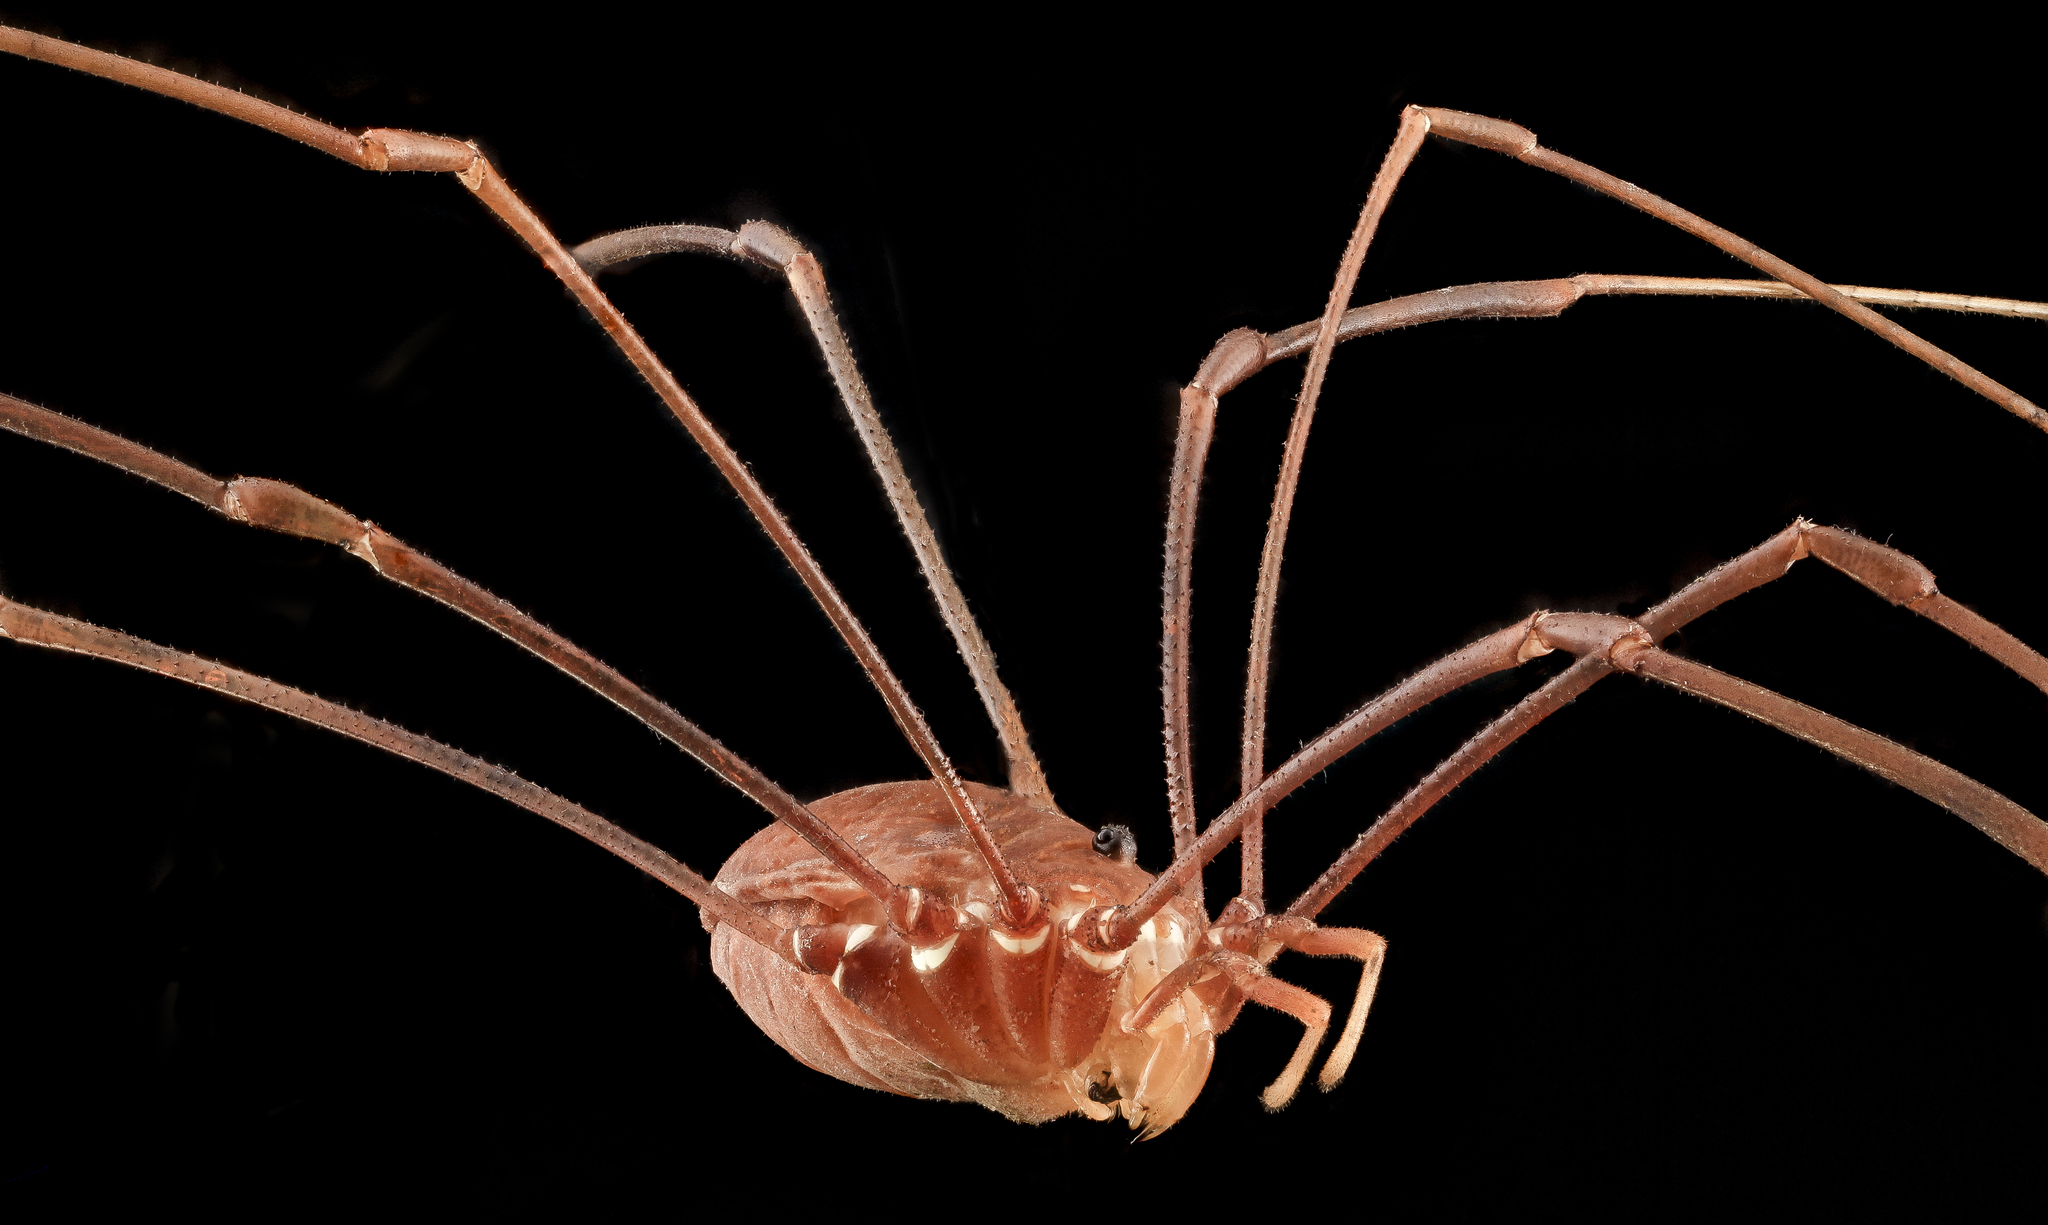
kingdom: Animalia
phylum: Arthropoda
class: Arachnida
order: Opiliones
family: Sclerosomatidae
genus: Leiobunum
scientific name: Leiobunum flavum
